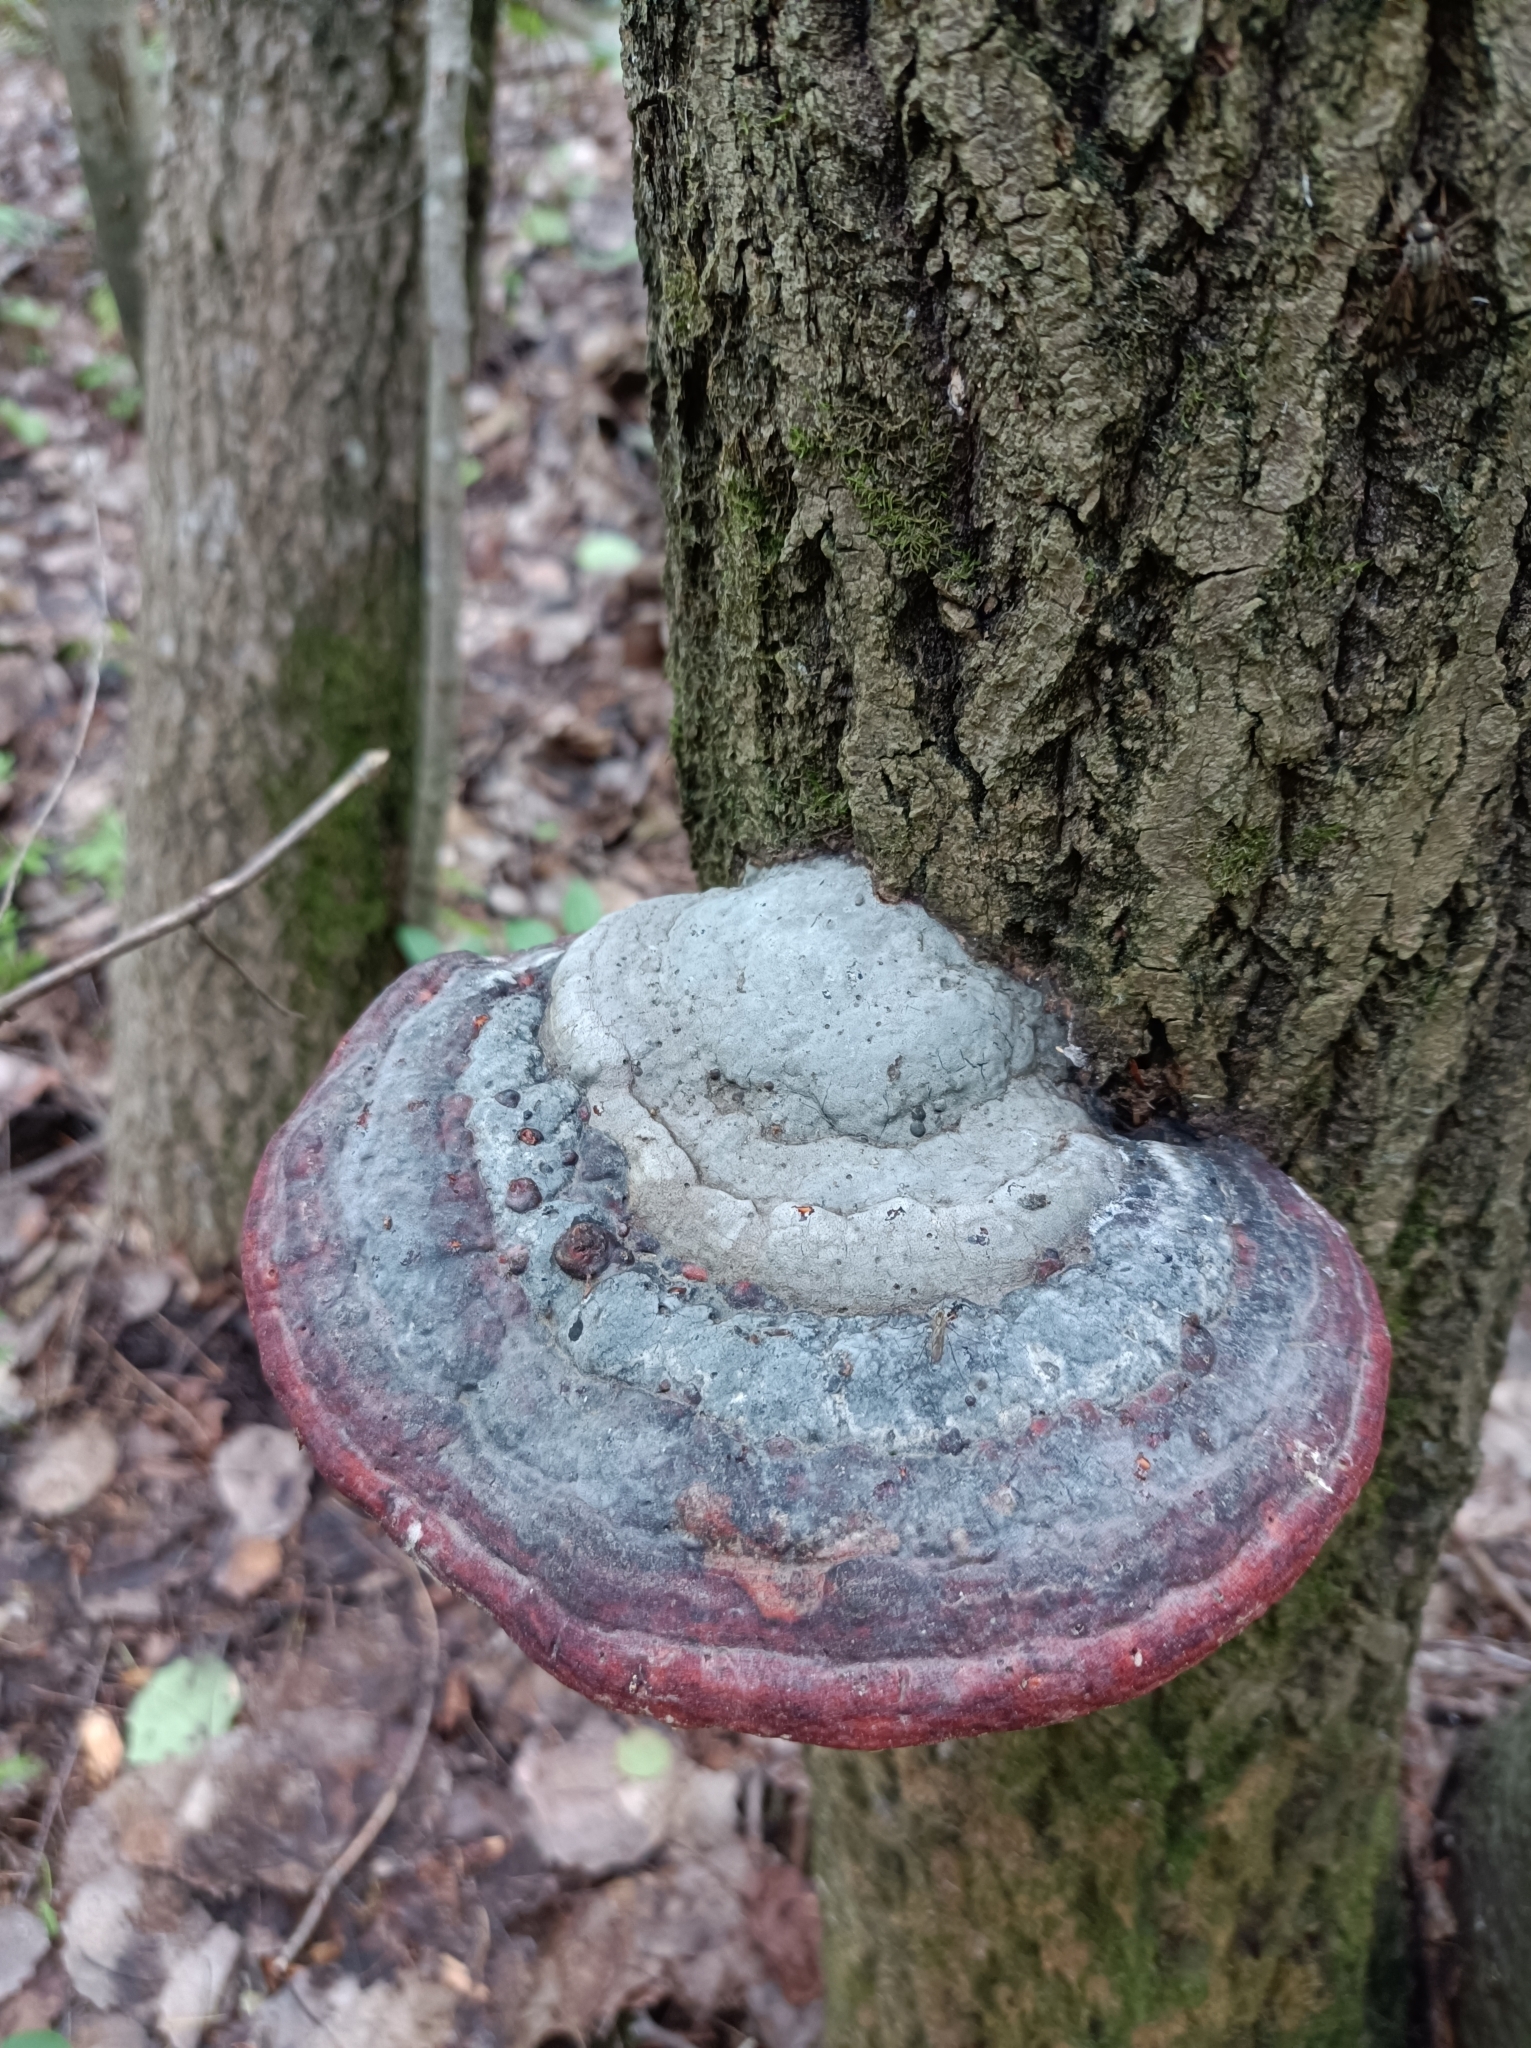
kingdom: Fungi
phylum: Basidiomycota
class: Agaricomycetes
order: Polyporales
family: Fomitopsidaceae
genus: Fomitopsis
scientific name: Fomitopsis pinicola
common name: Red-belted bracket
